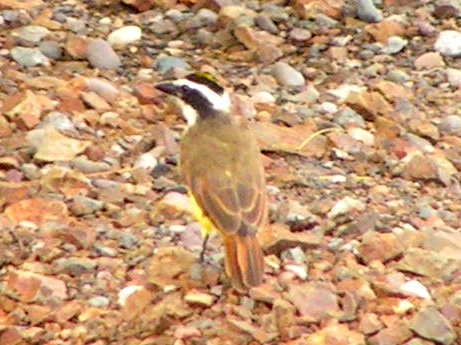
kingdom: Animalia
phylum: Chordata
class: Aves
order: Passeriformes
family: Tyrannidae
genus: Pitangus
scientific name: Pitangus sulphuratus
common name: Great kiskadee
